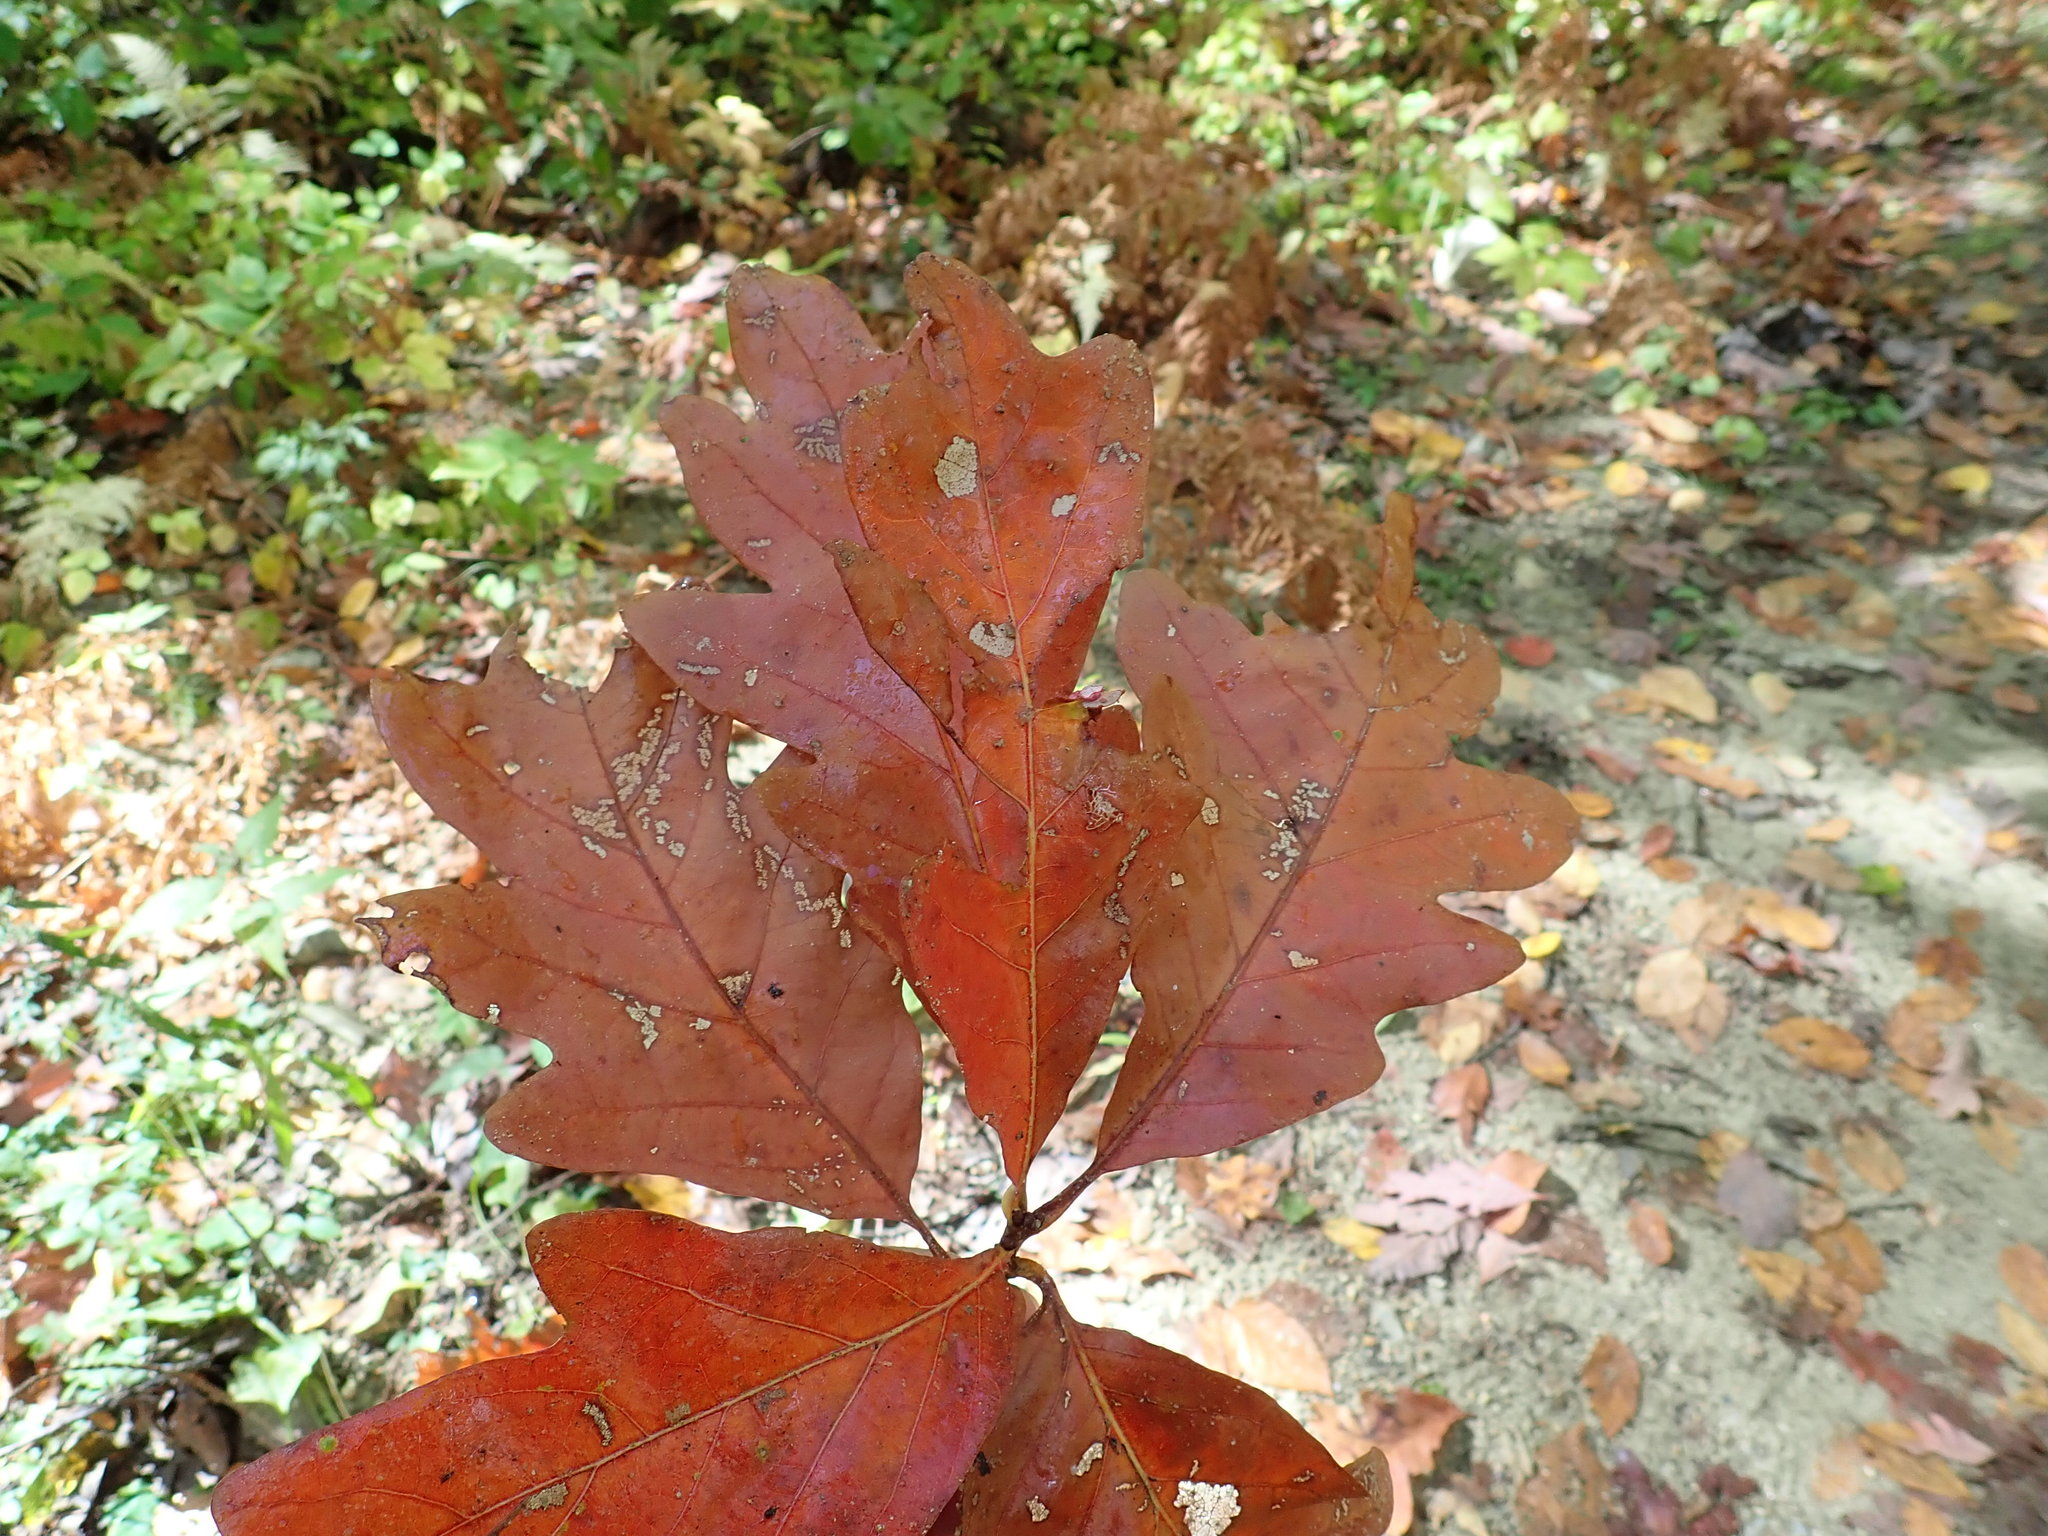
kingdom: Plantae
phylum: Tracheophyta
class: Magnoliopsida
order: Fagales
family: Fagaceae
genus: Quercus
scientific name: Quercus alba
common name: White oak
